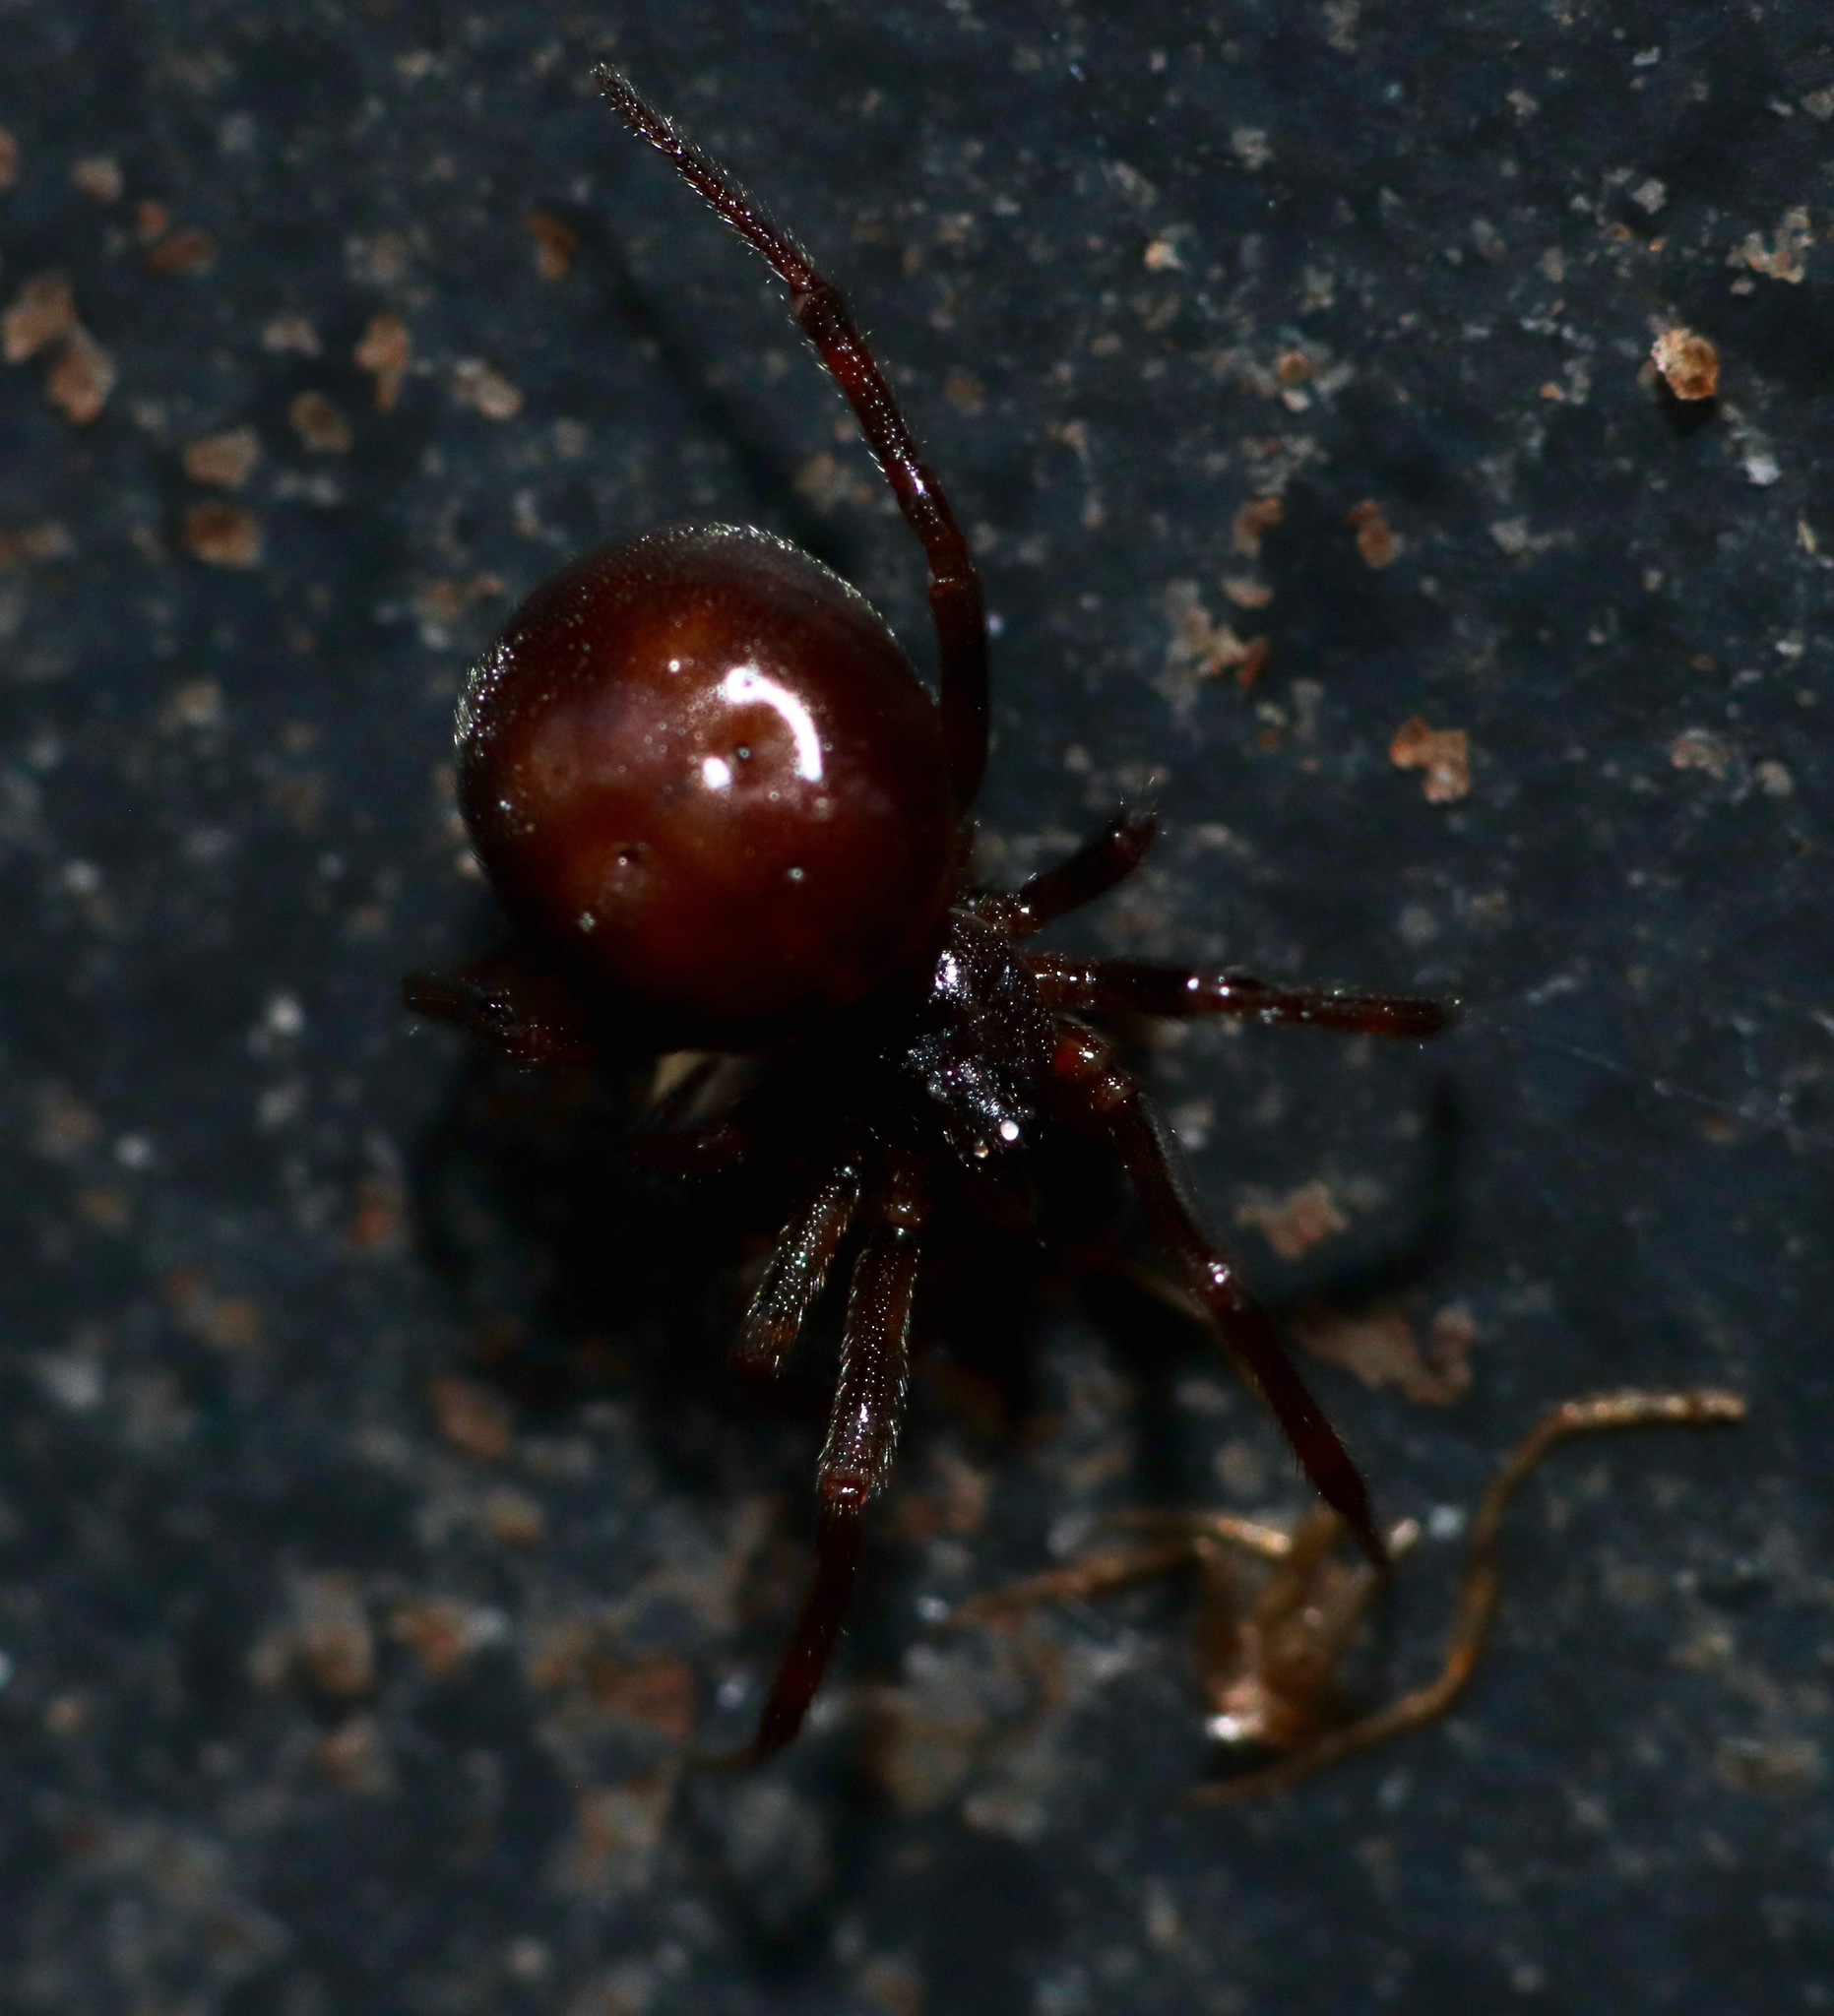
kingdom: Animalia
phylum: Arthropoda
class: Arachnida
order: Araneae
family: Theridiidae
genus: Steatoda
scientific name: Steatoda borealis
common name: Boreal combfoot
